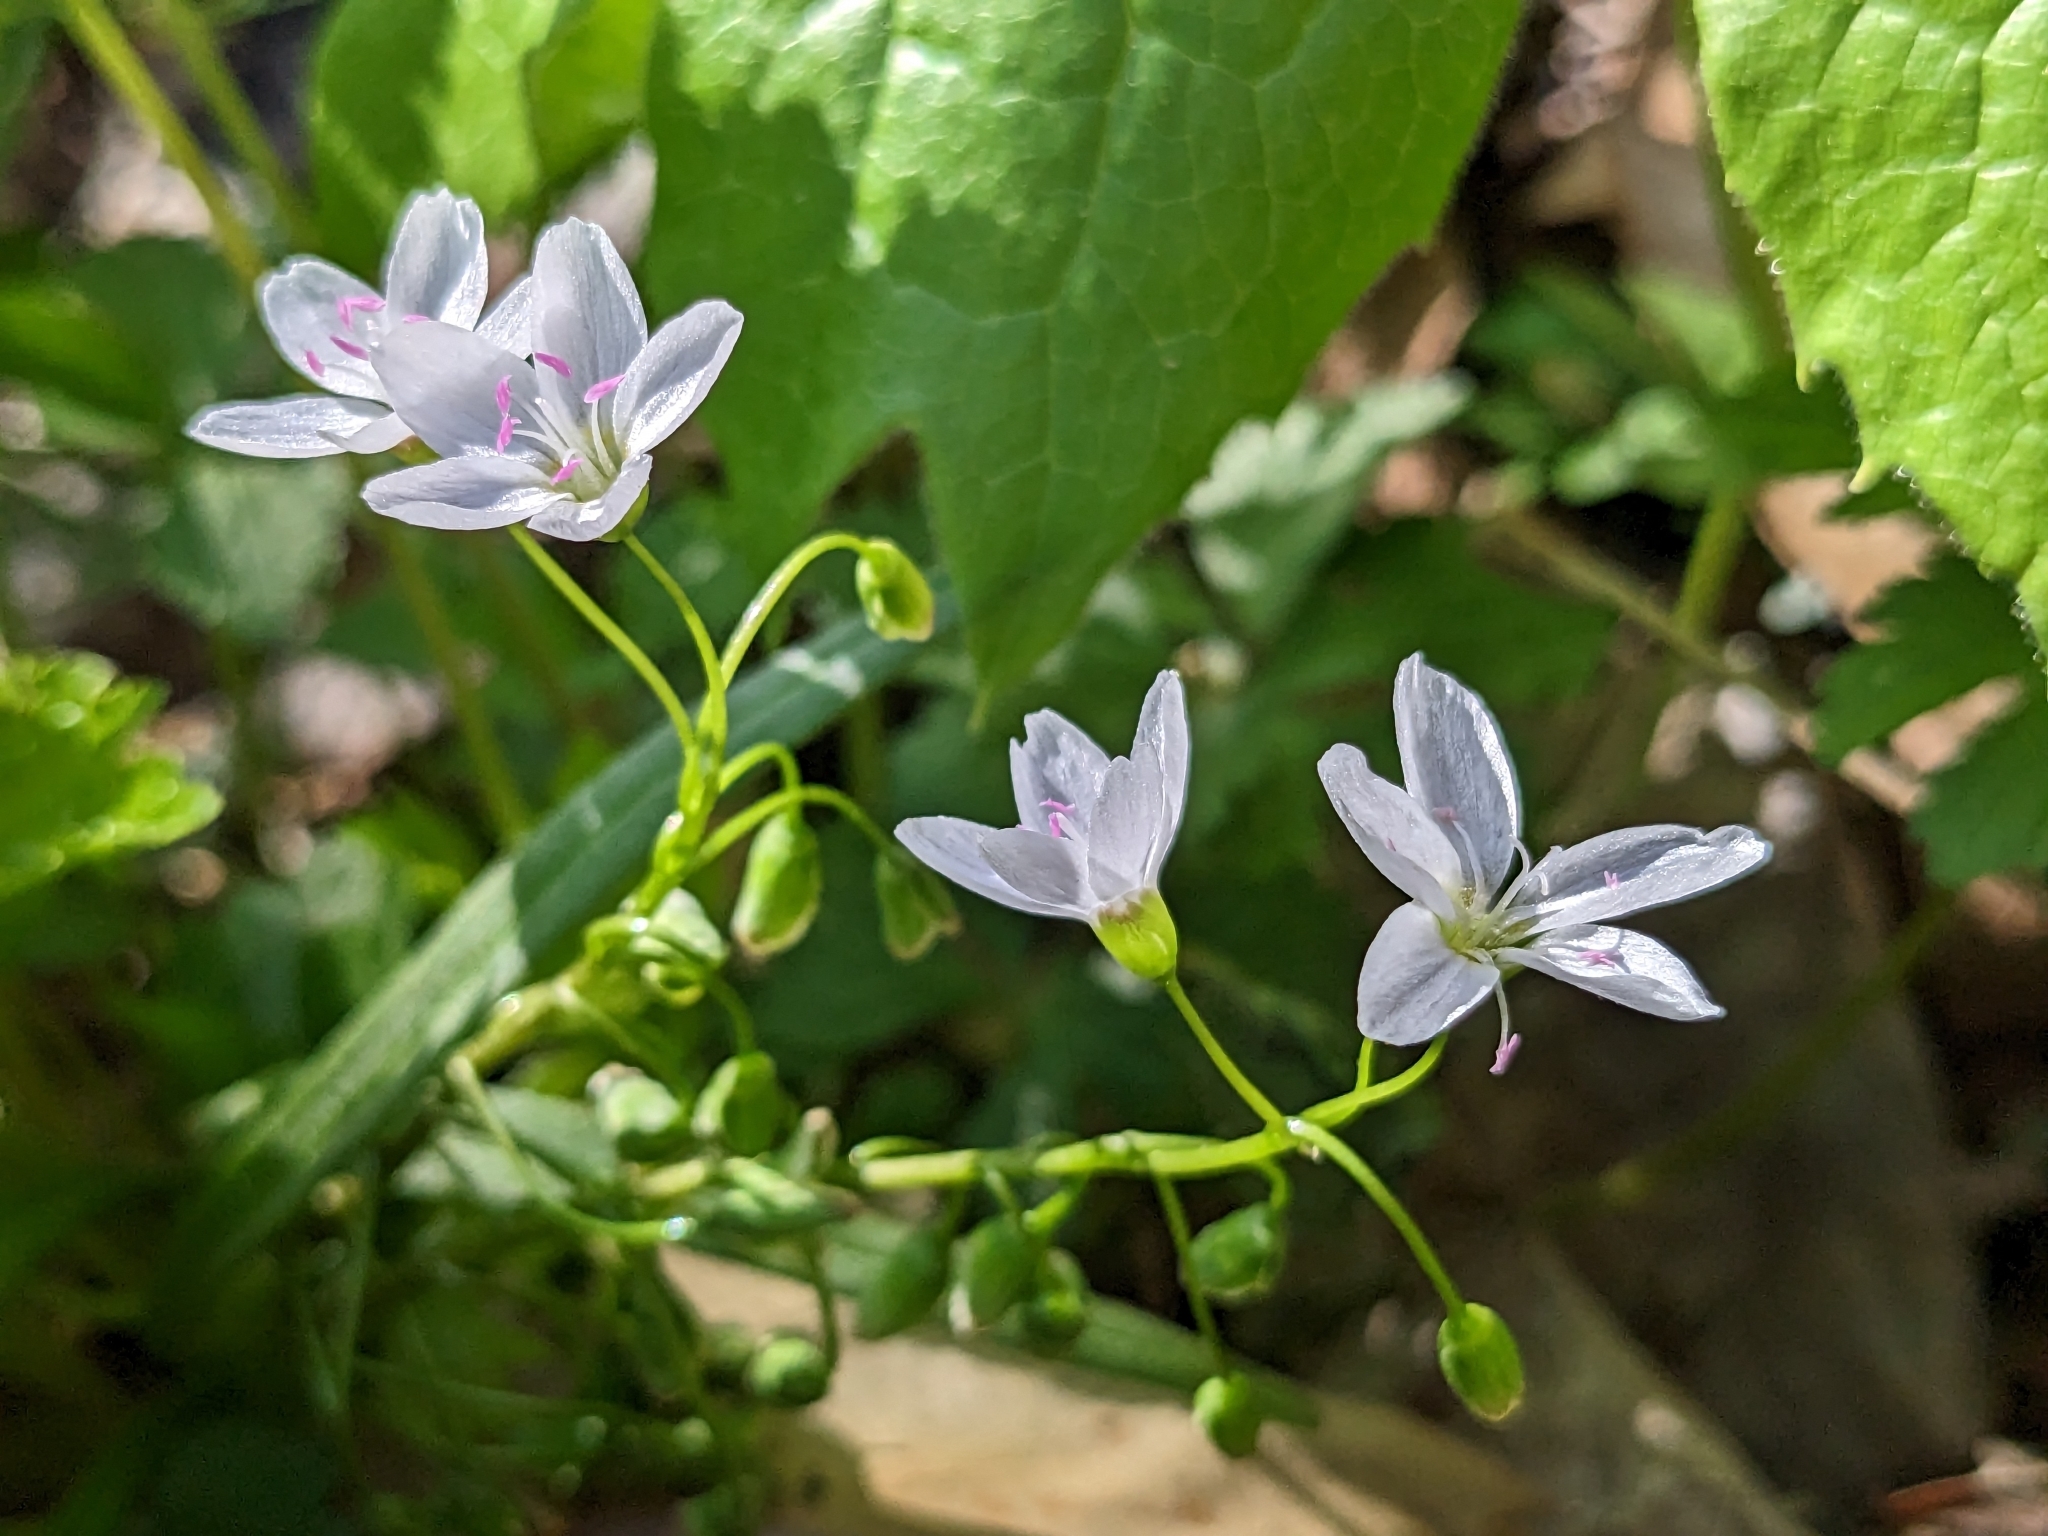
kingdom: Plantae
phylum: Tracheophyta
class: Magnoliopsida
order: Caryophyllales
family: Montiaceae
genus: Claytonia
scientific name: Claytonia virginica
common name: Virginia springbeauty
